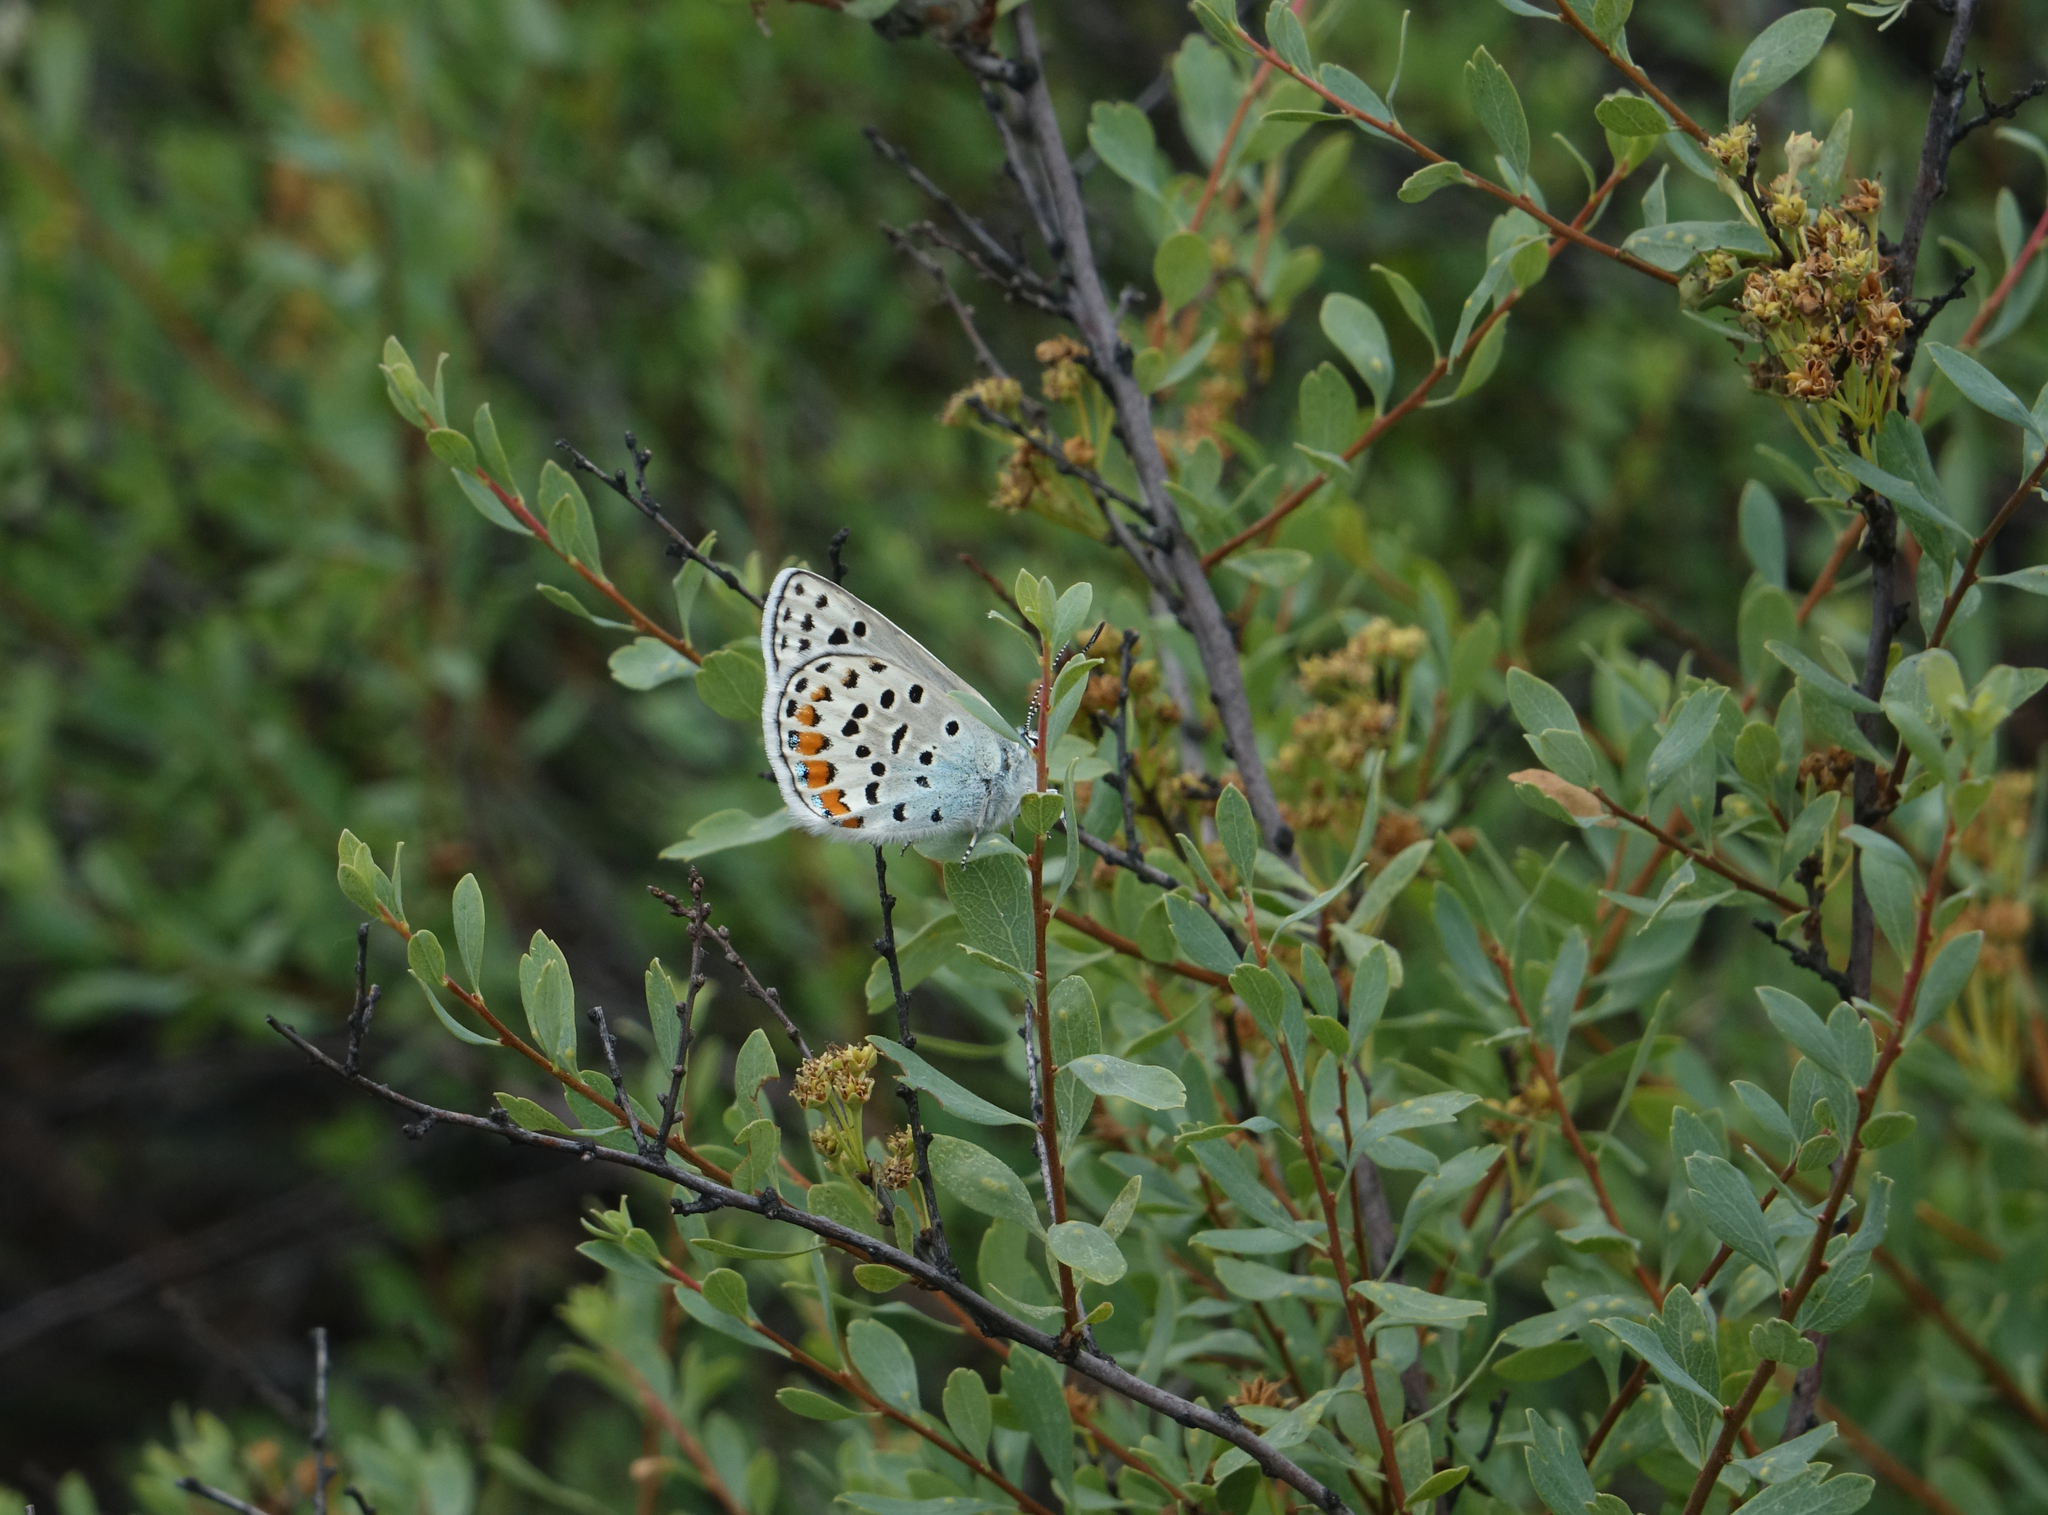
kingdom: Animalia
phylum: Arthropoda
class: Insecta
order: Lepidoptera
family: Lycaenidae
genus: Glabroculus
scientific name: Glabroculus cyane
